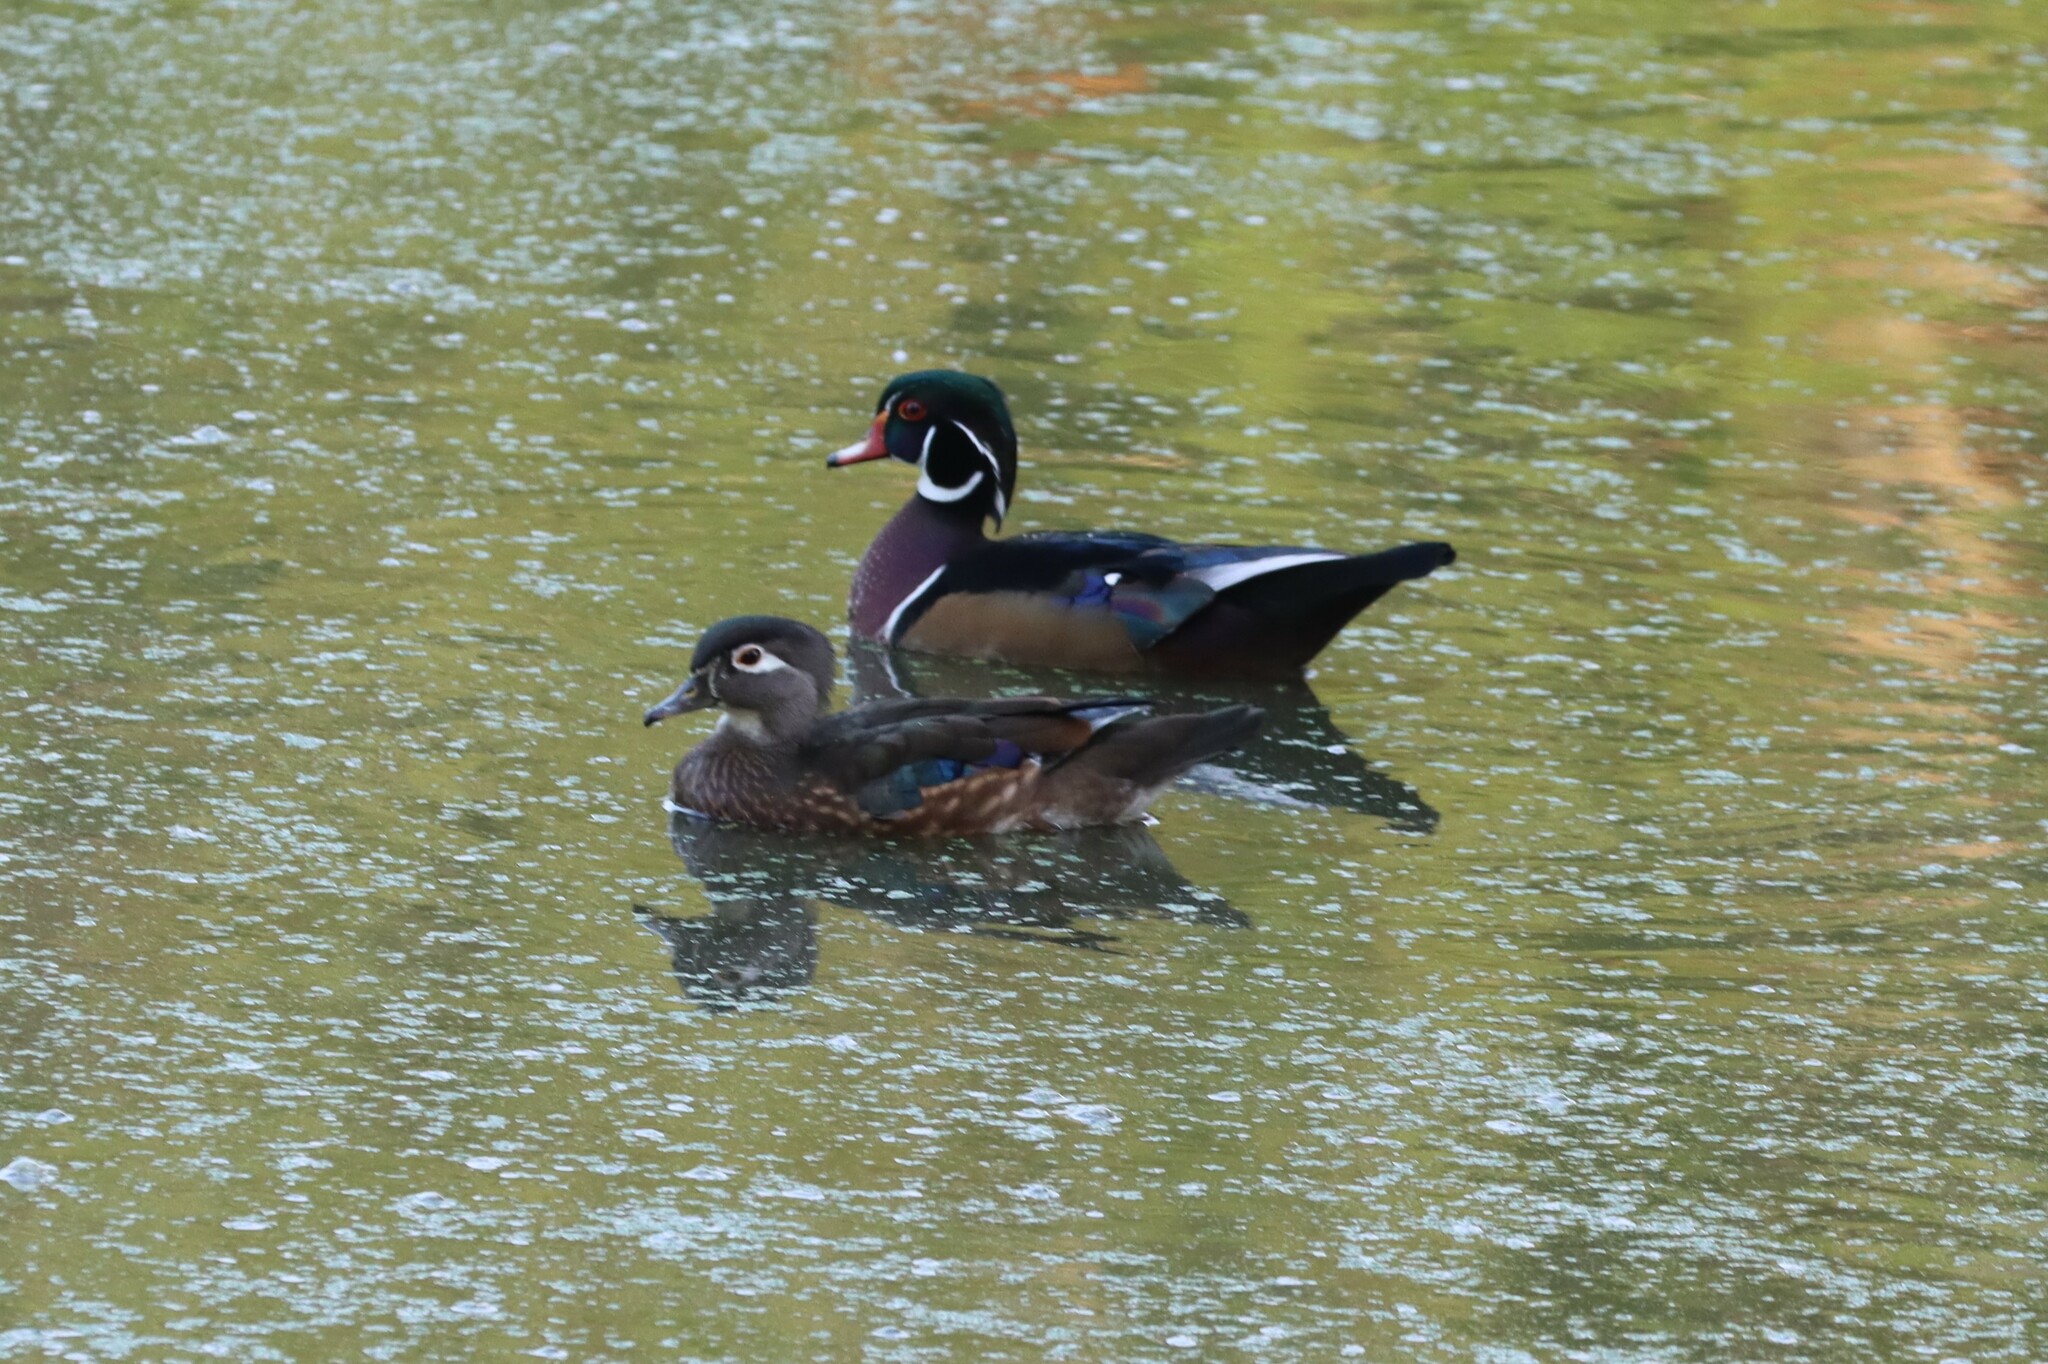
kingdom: Animalia
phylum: Chordata
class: Aves
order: Anseriformes
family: Anatidae
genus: Aix
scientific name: Aix sponsa
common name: Wood duck
